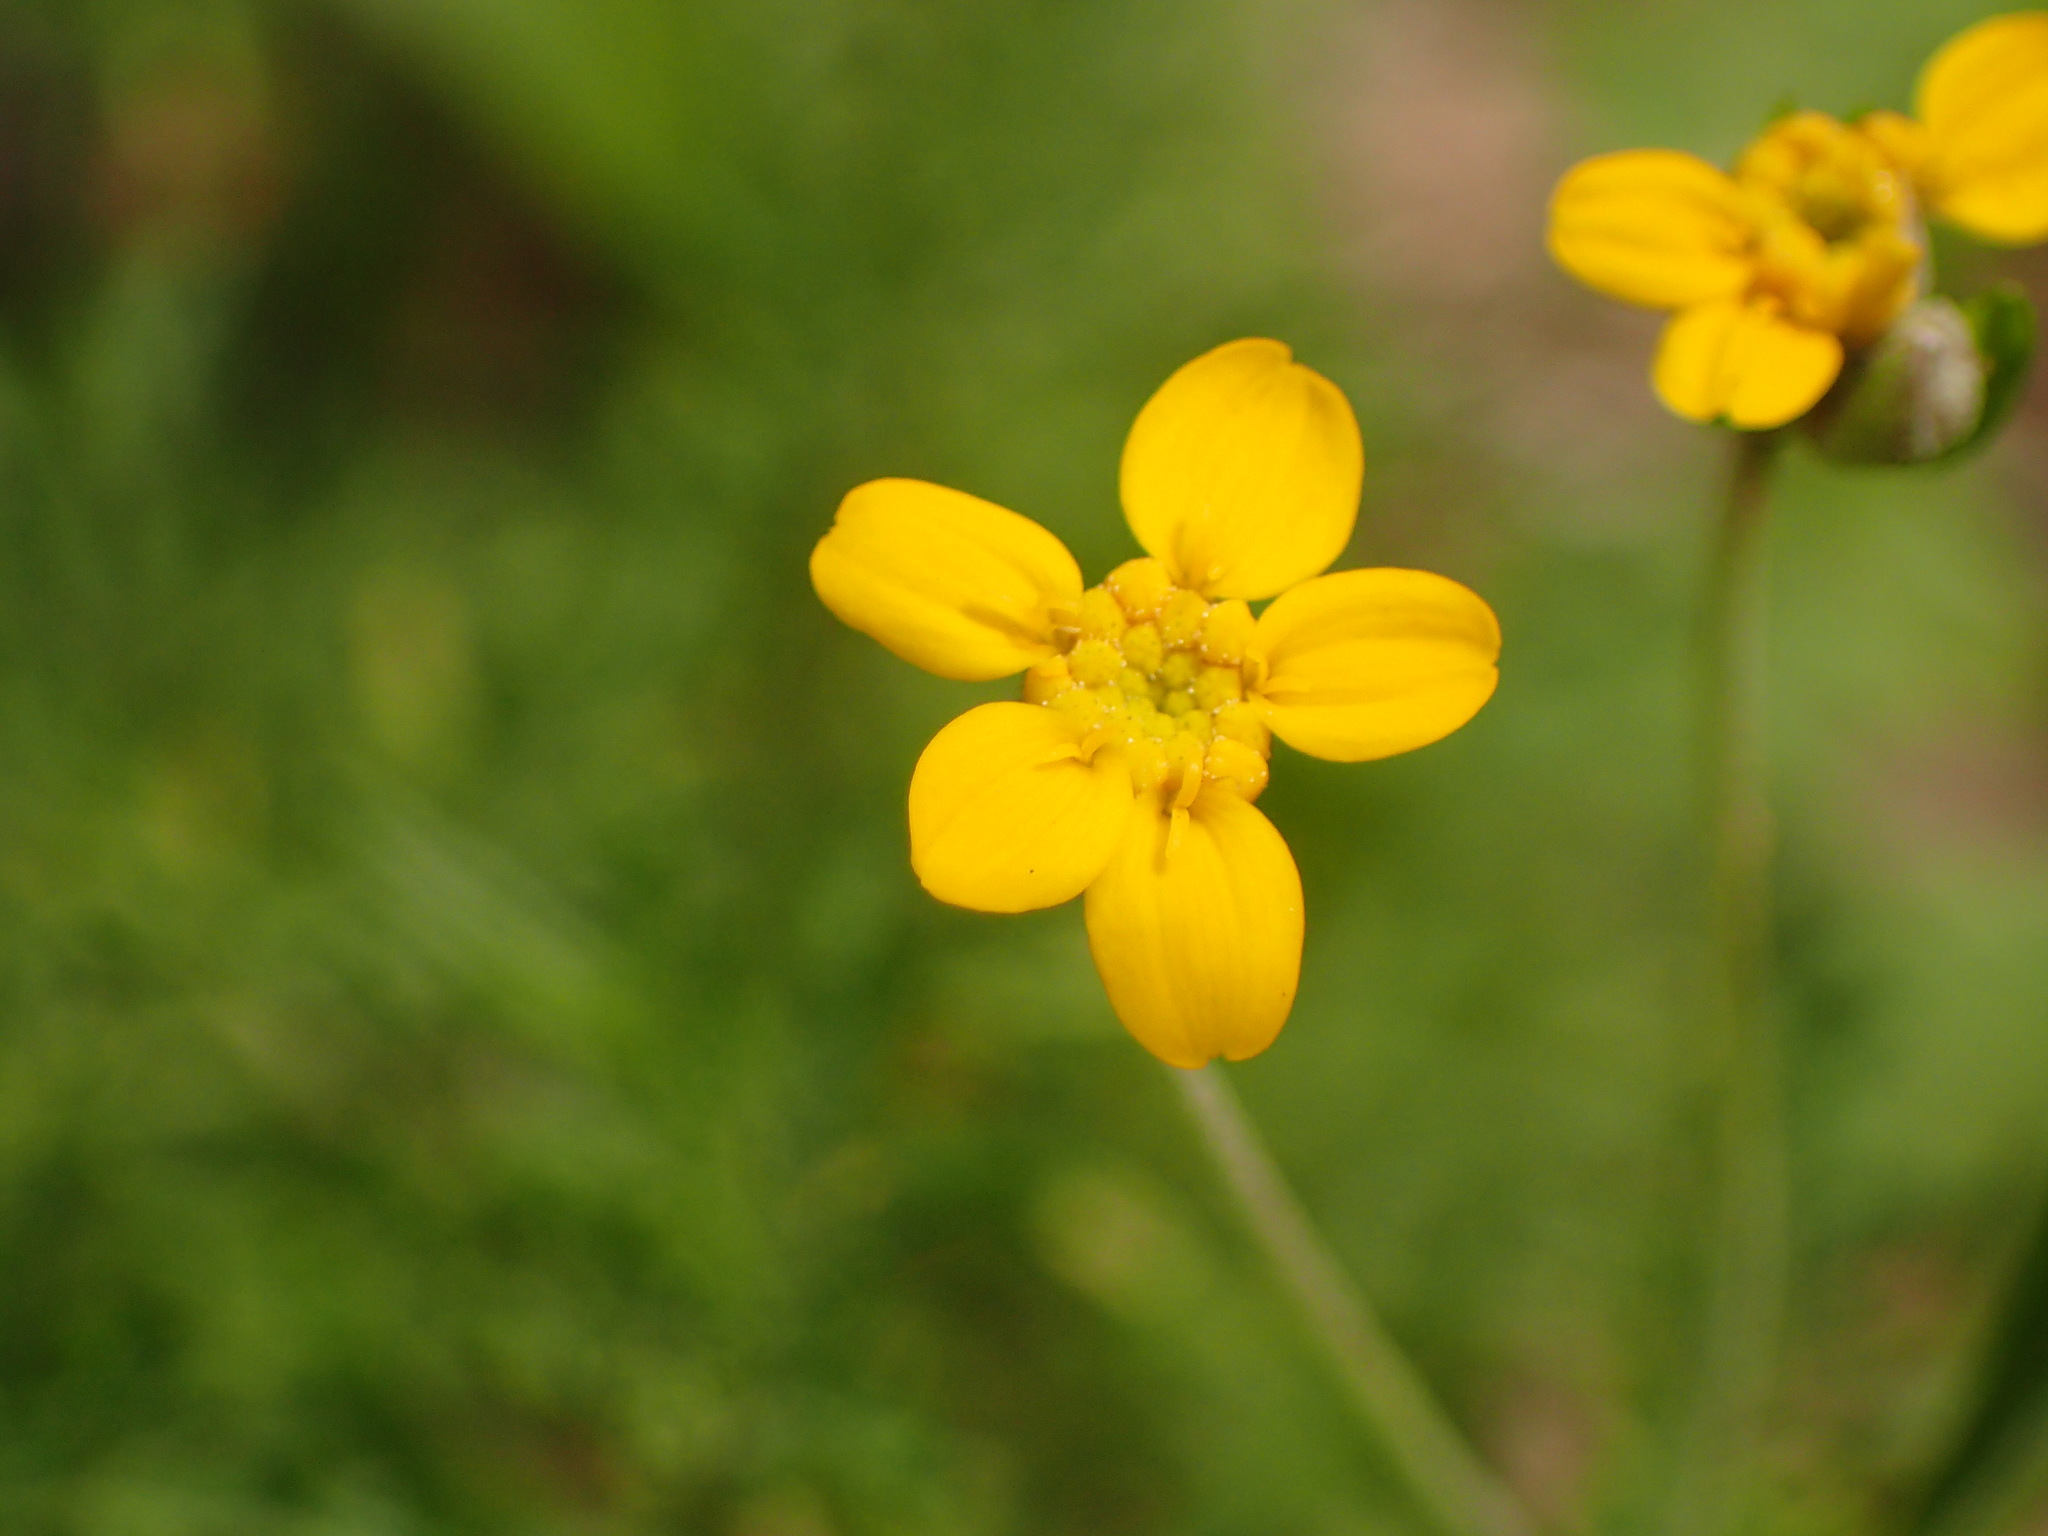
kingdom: Plantae
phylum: Tracheophyta
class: Magnoliopsida
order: Asterales
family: Asteraceae
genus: Eriophyllum
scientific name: Eriophyllum confertiflorum
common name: Golden-yarrow
